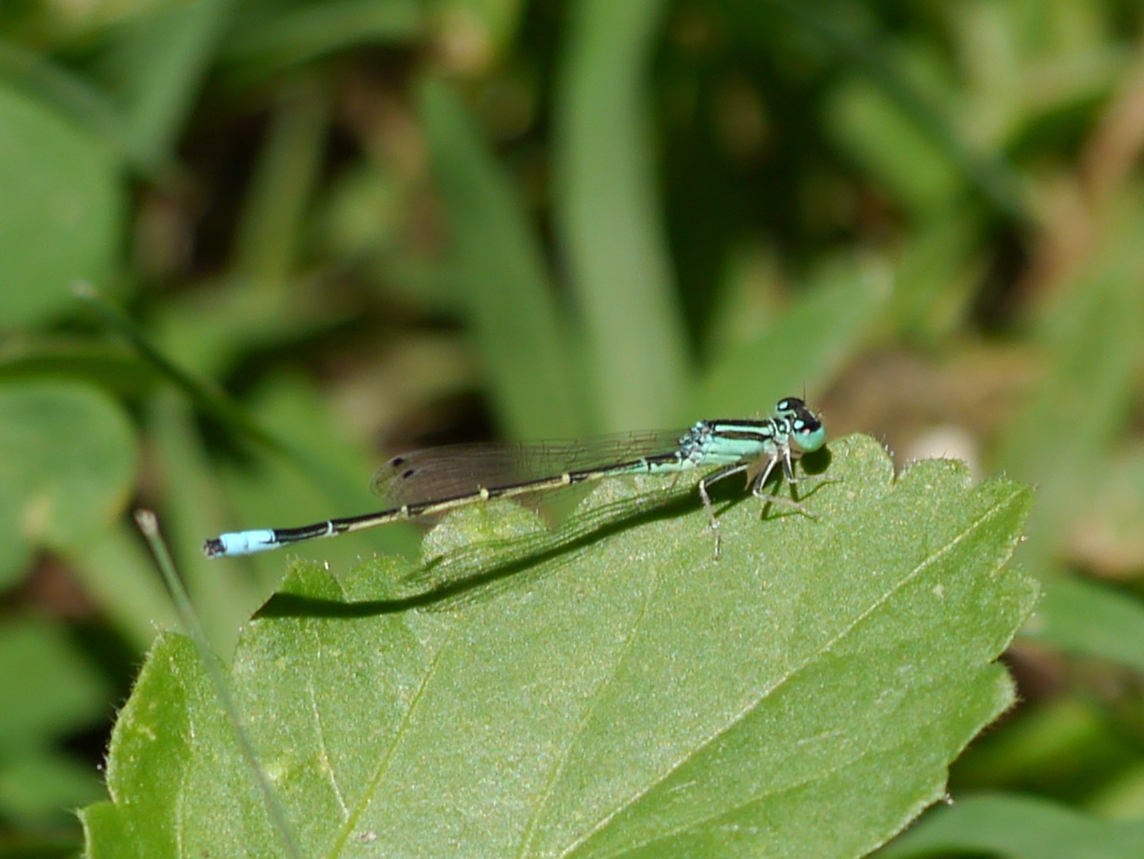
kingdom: Animalia
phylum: Arthropoda
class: Insecta
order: Odonata
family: Coenagrionidae
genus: Ischnura
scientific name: Ischnura demorsa
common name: Mexican forktail
